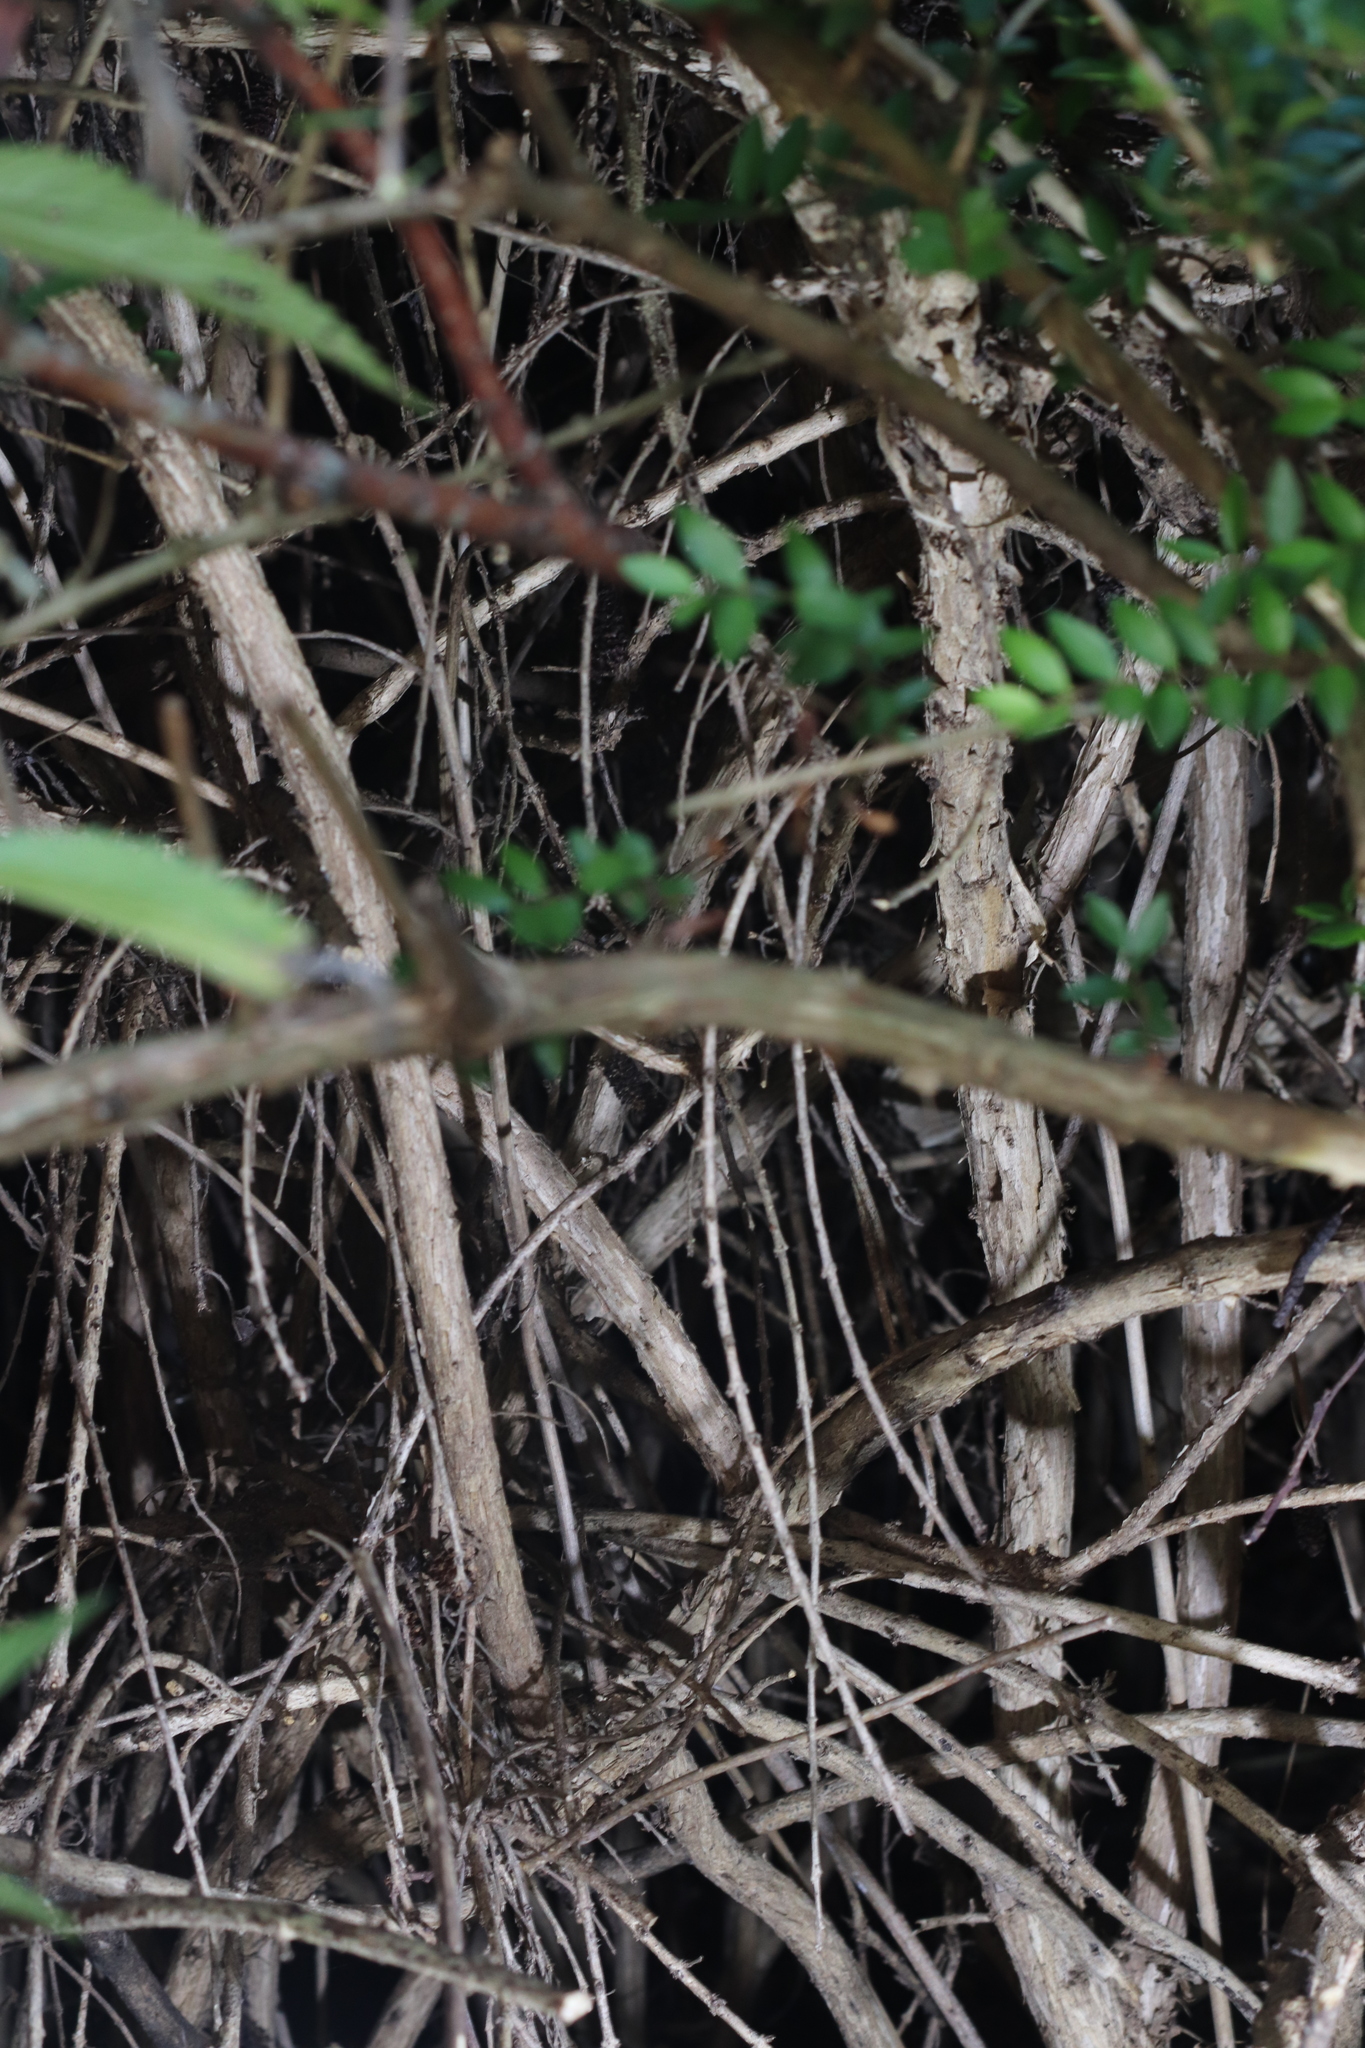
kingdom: Animalia
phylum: Arthropoda
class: Insecta
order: Hymenoptera
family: Vespidae
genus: Vespa
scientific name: Vespa velutina
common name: Asian hornet
